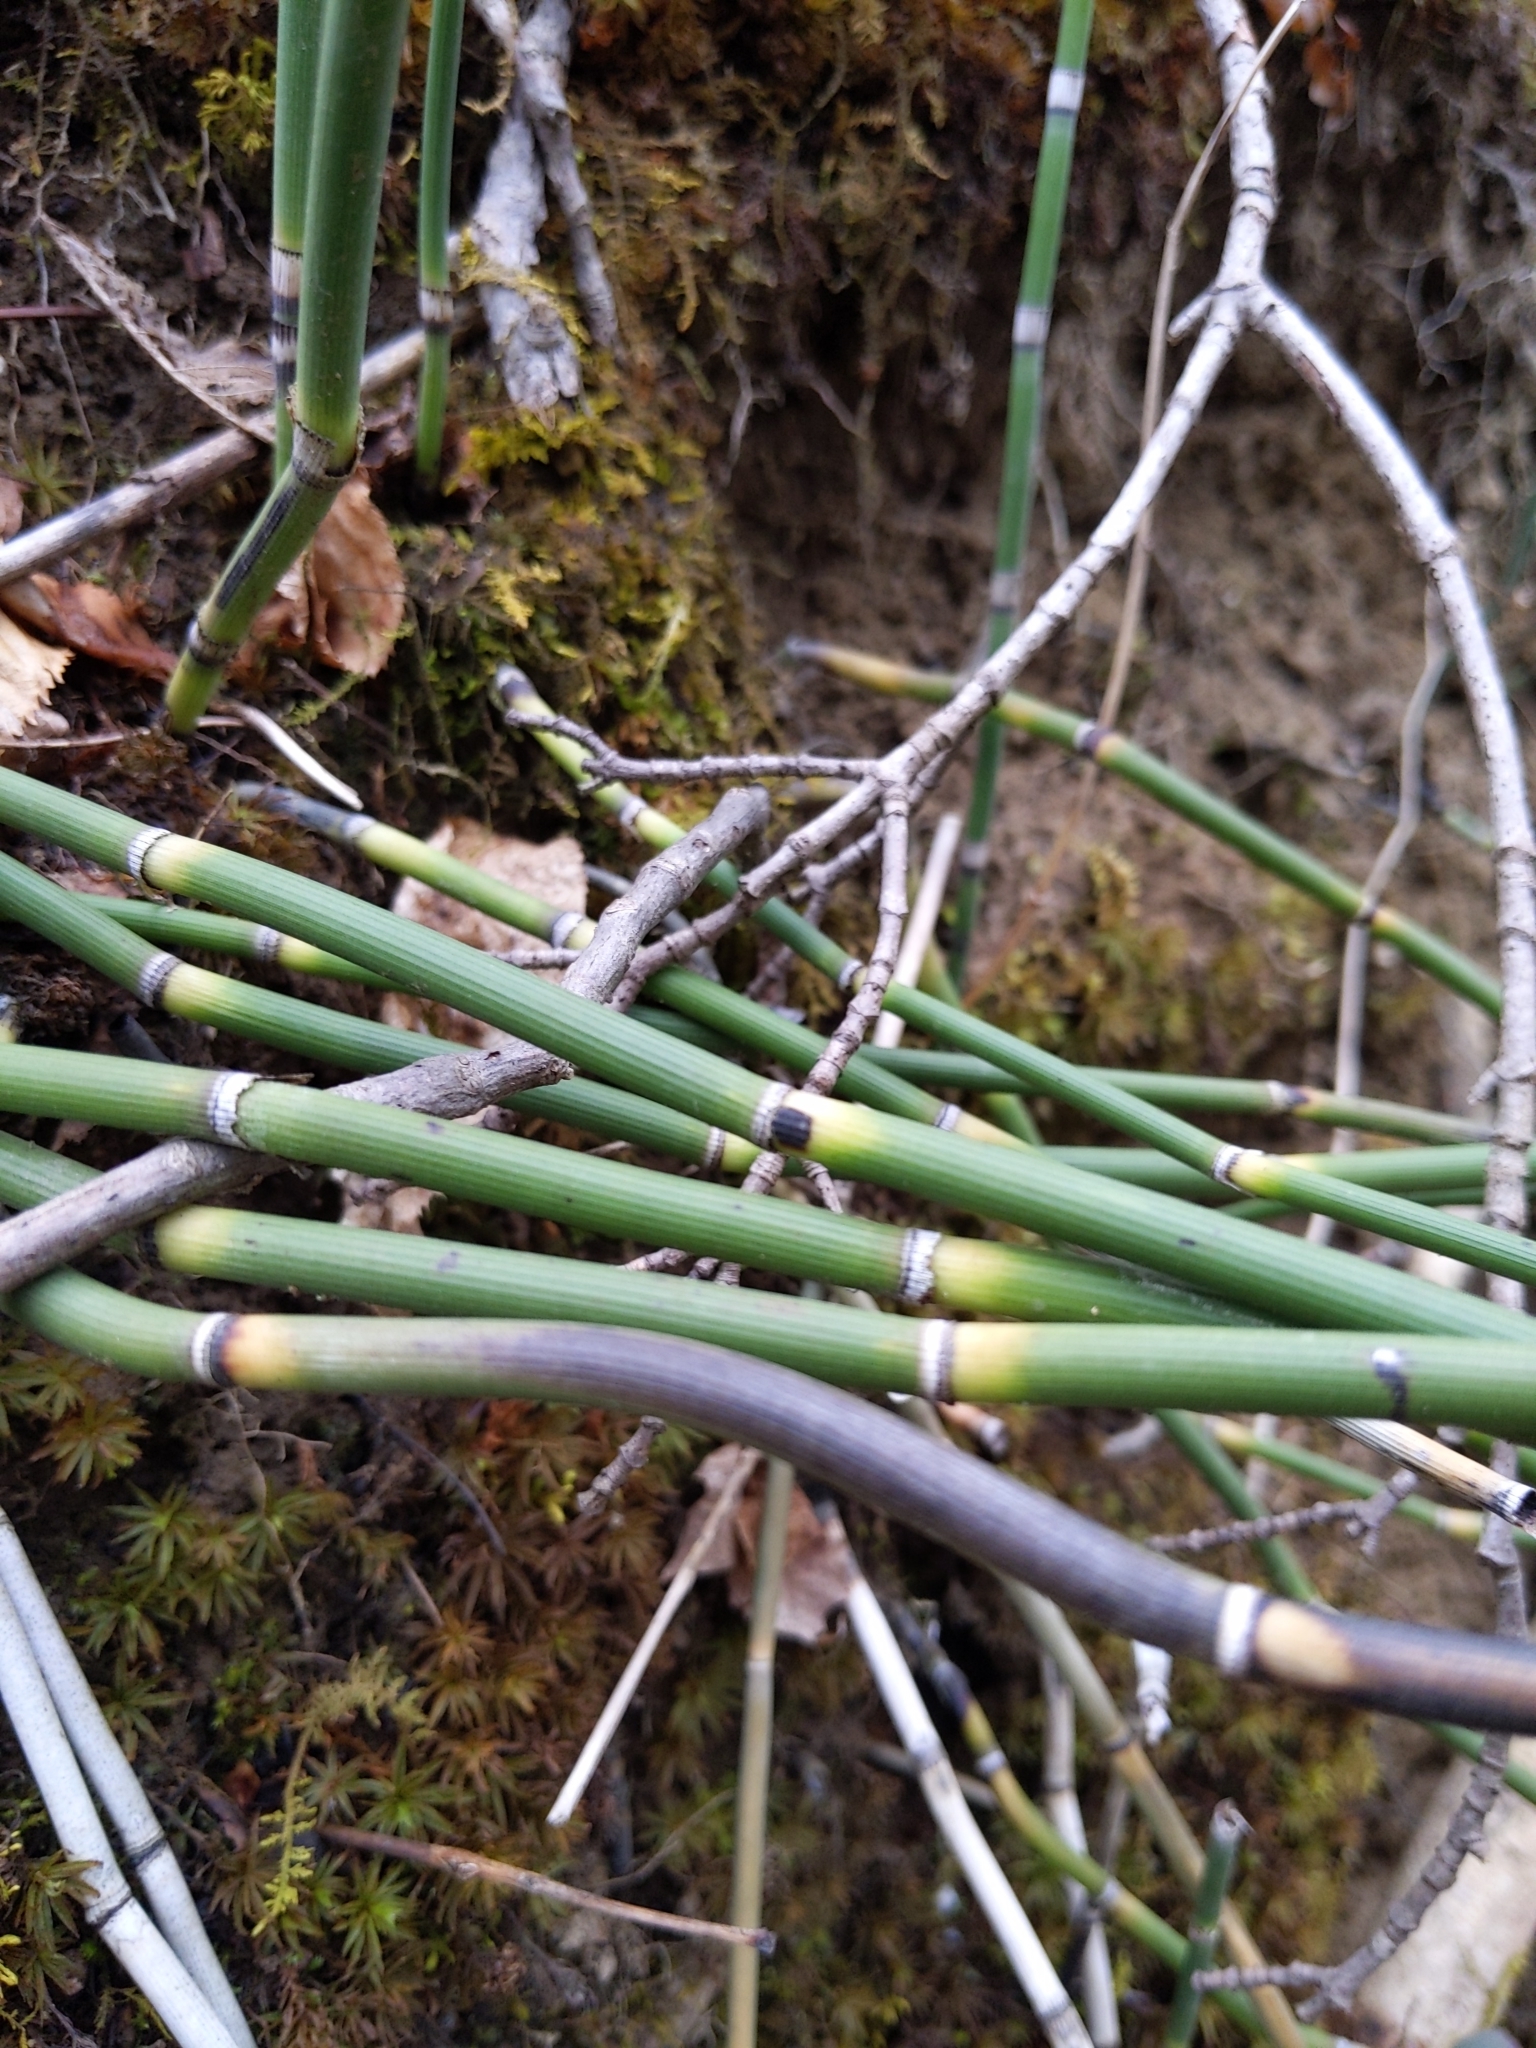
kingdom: Plantae
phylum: Tracheophyta
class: Polypodiopsida
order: Equisetales
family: Equisetaceae
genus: Equisetum
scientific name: Equisetum hyemale
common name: Rough horsetail
